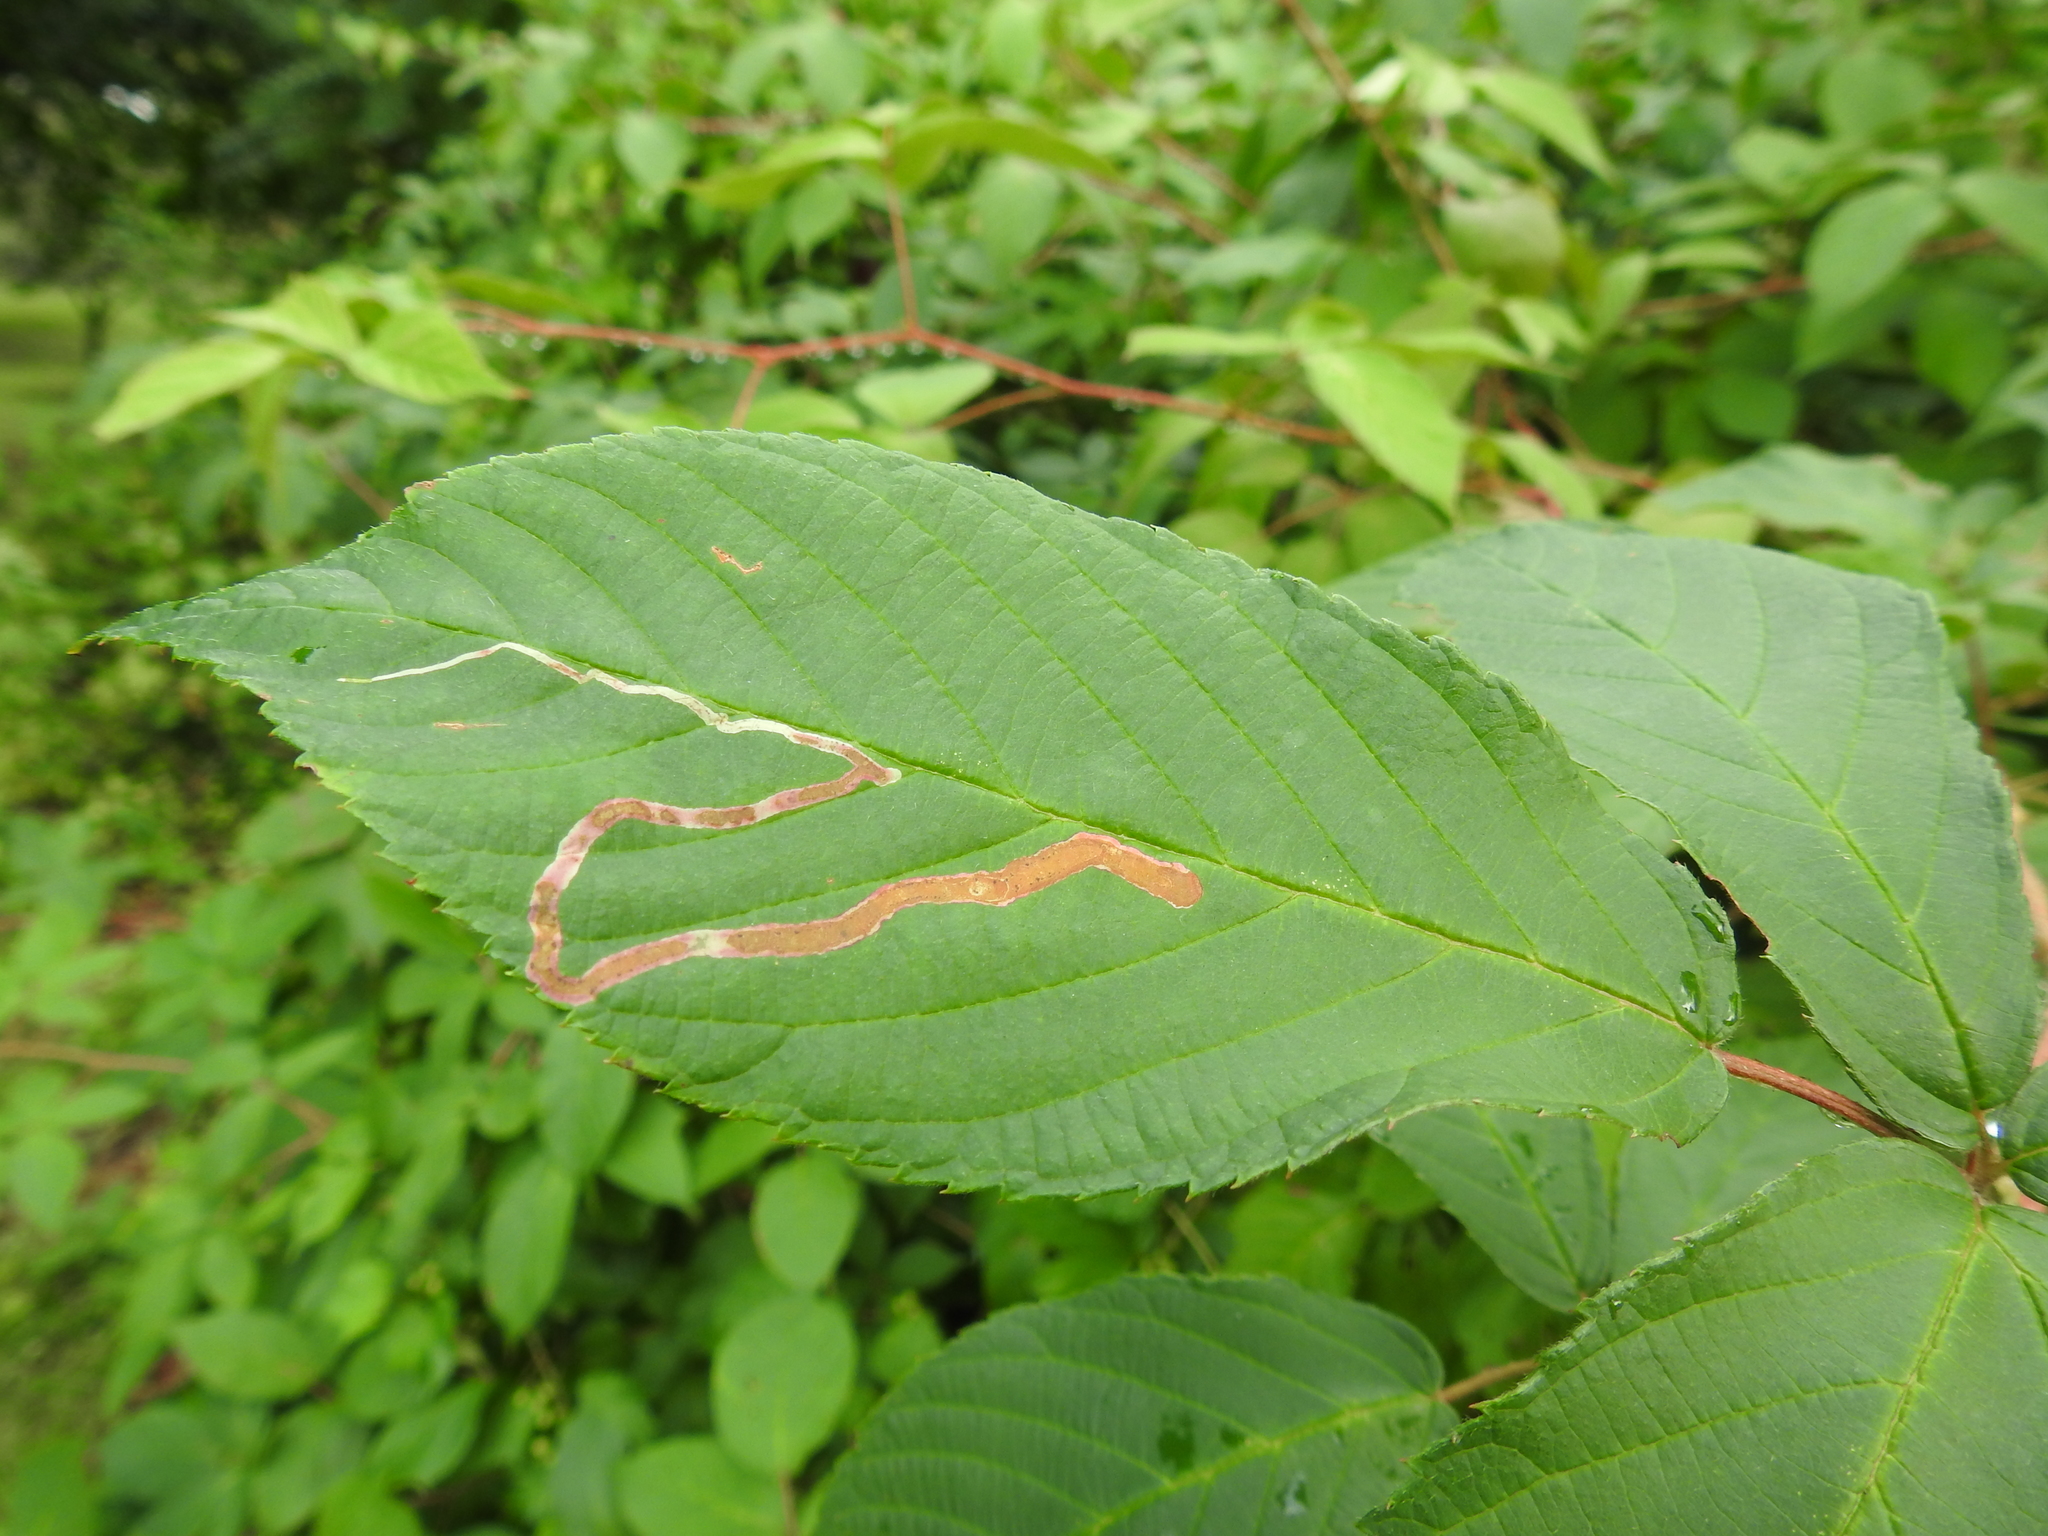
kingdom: Animalia
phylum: Arthropoda
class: Insecta
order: Diptera
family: Agromyzidae
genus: Agromyza
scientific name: Agromyza vockerothi
